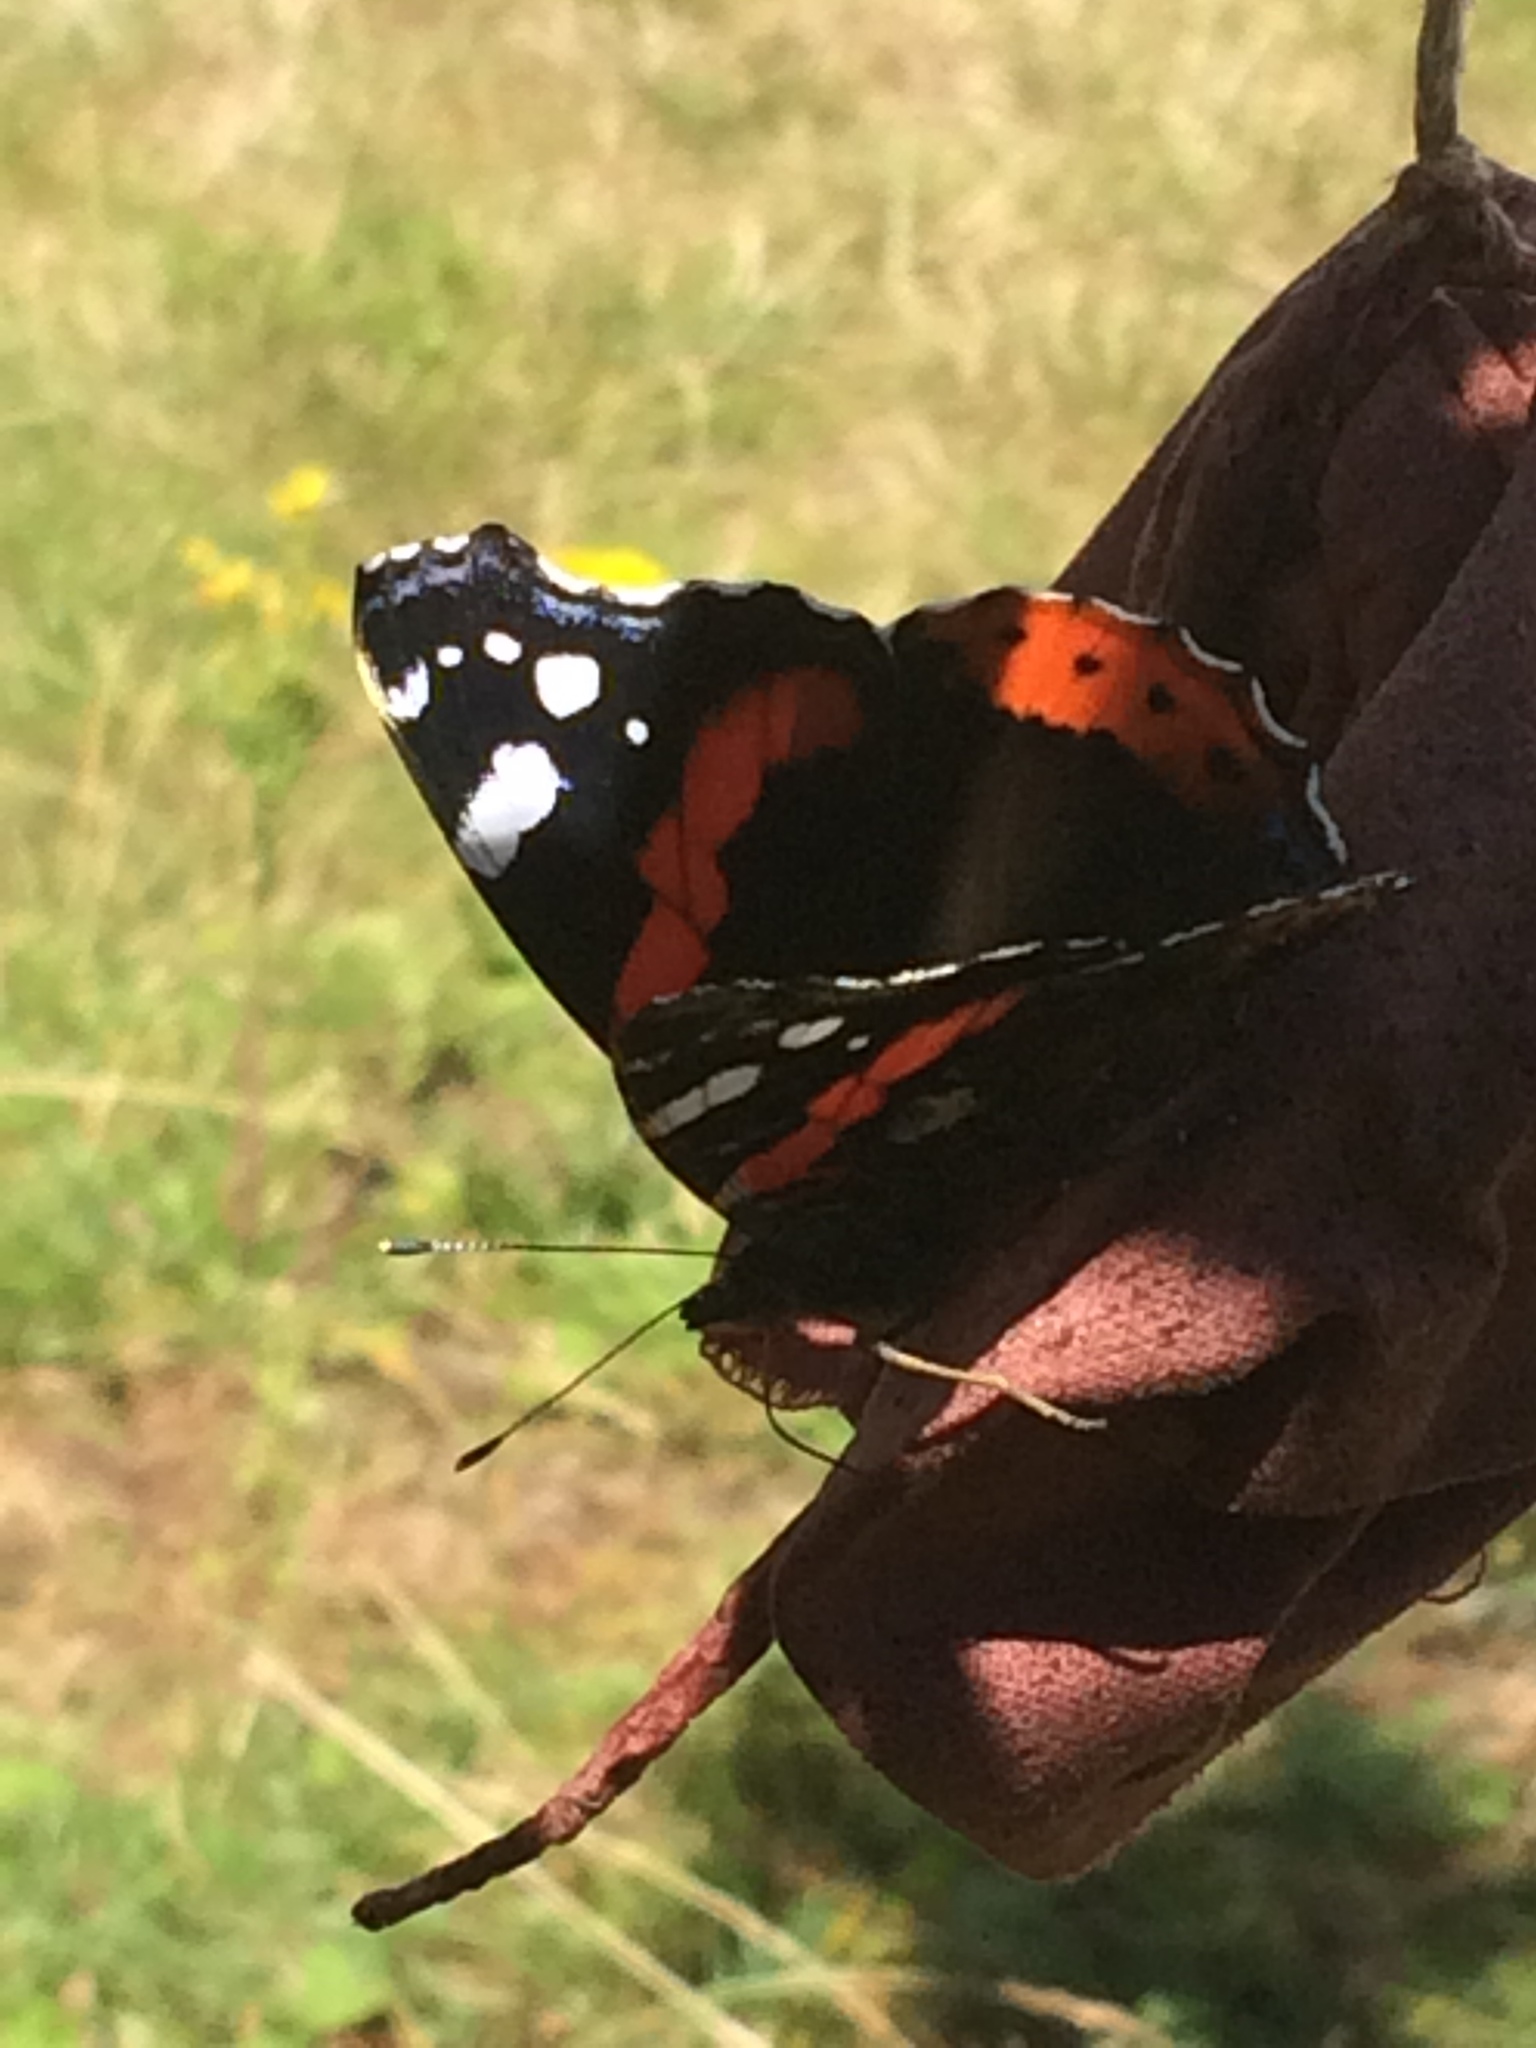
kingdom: Animalia
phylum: Arthropoda
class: Insecta
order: Lepidoptera
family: Nymphalidae
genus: Vanessa
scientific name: Vanessa atalanta
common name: Red admiral
